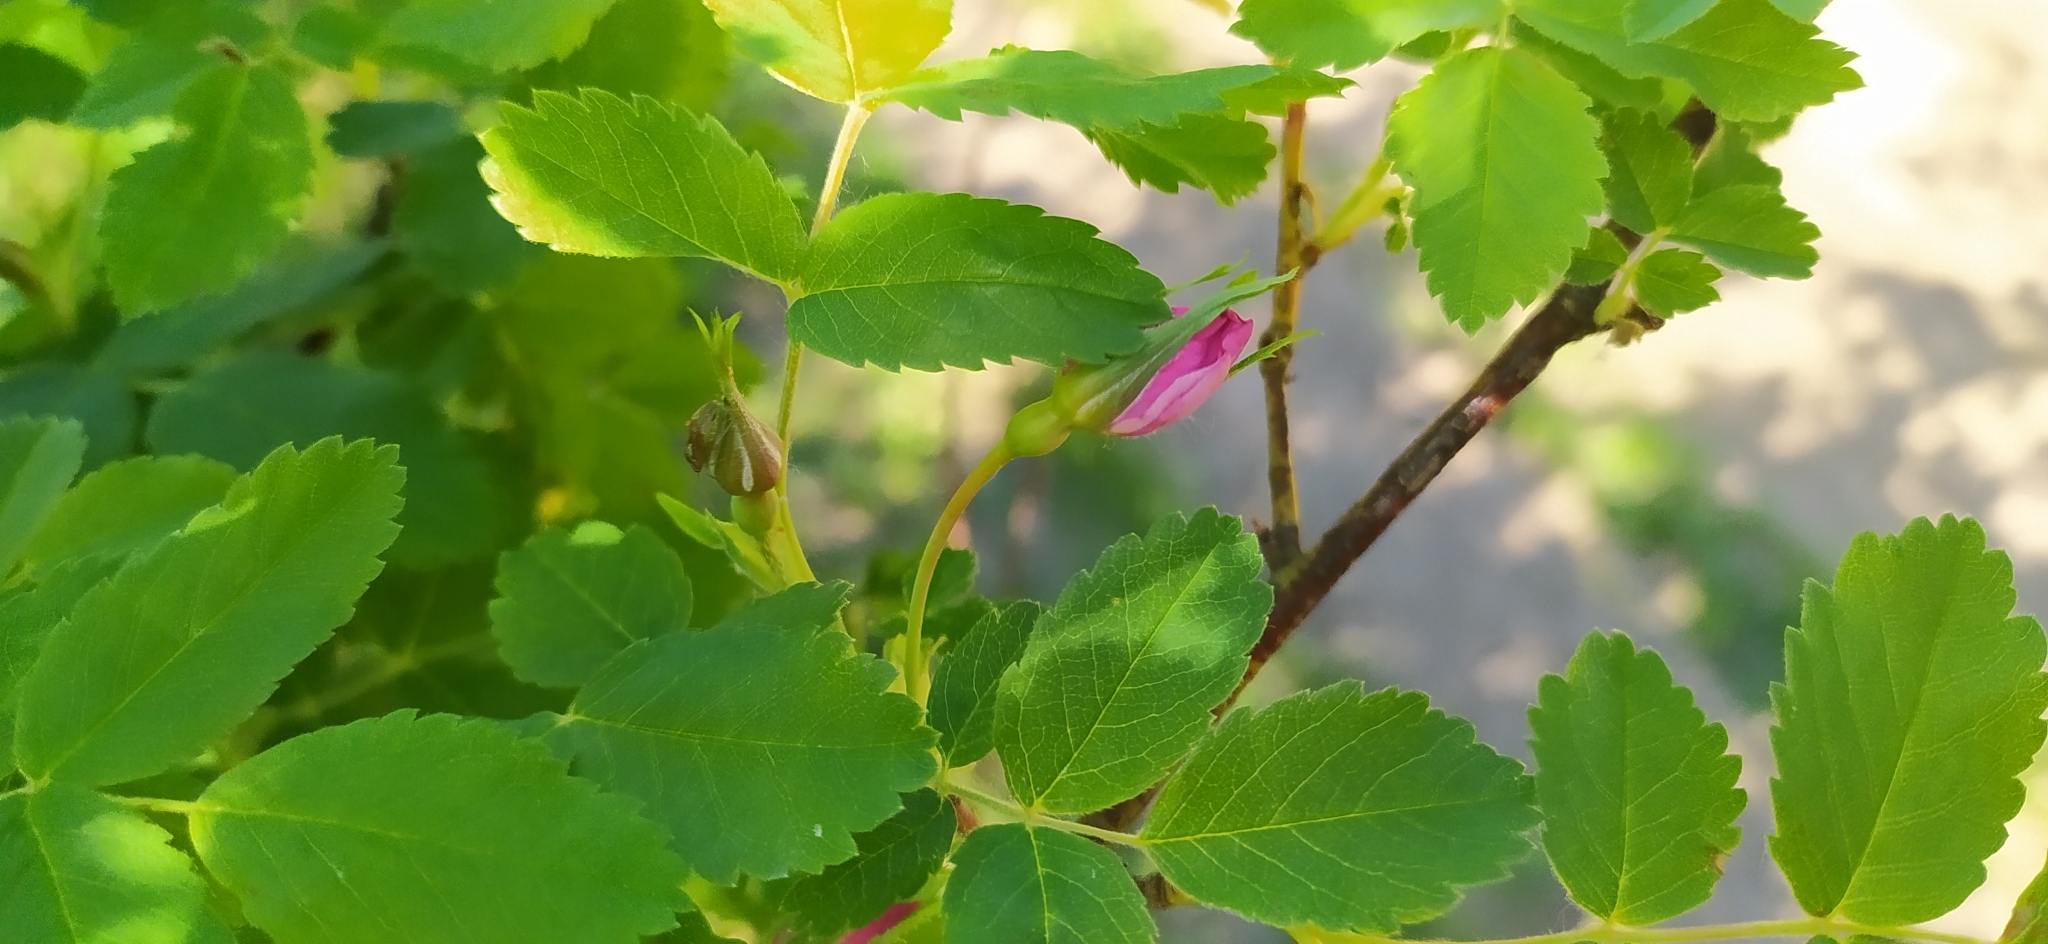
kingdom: Plantae
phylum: Tracheophyta
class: Magnoliopsida
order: Rosales
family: Rosaceae
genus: Rosa
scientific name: Rosa glabrifolia
